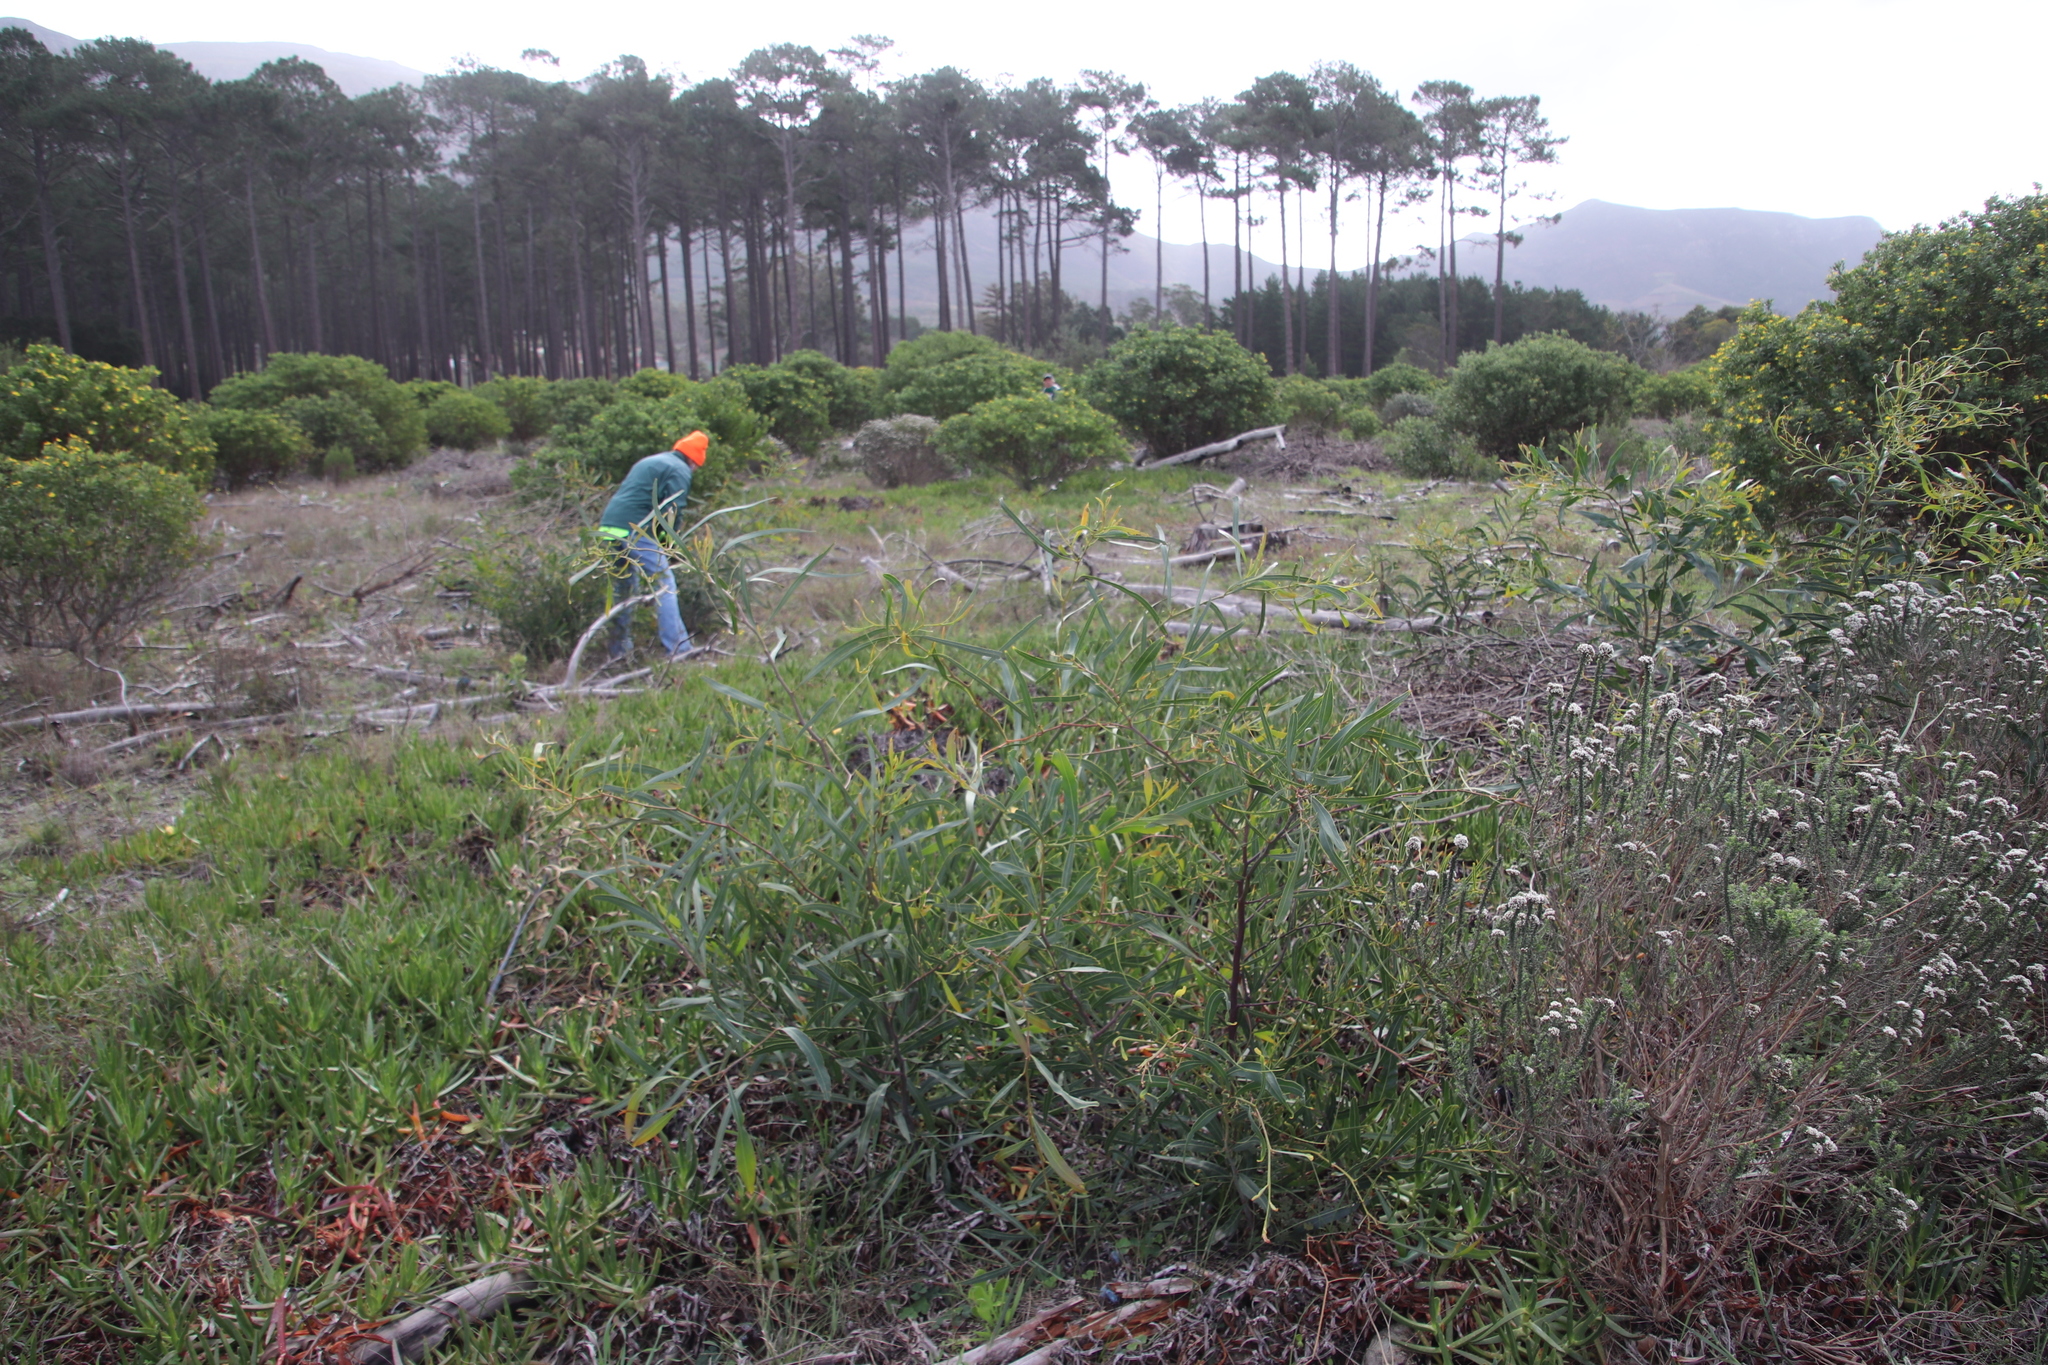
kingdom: Plantae
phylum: Tracheophyta
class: Magnoliopsida
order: Fabales
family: Fabaceae
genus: Acacia
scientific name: Acacia saligna
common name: Orange wattle
